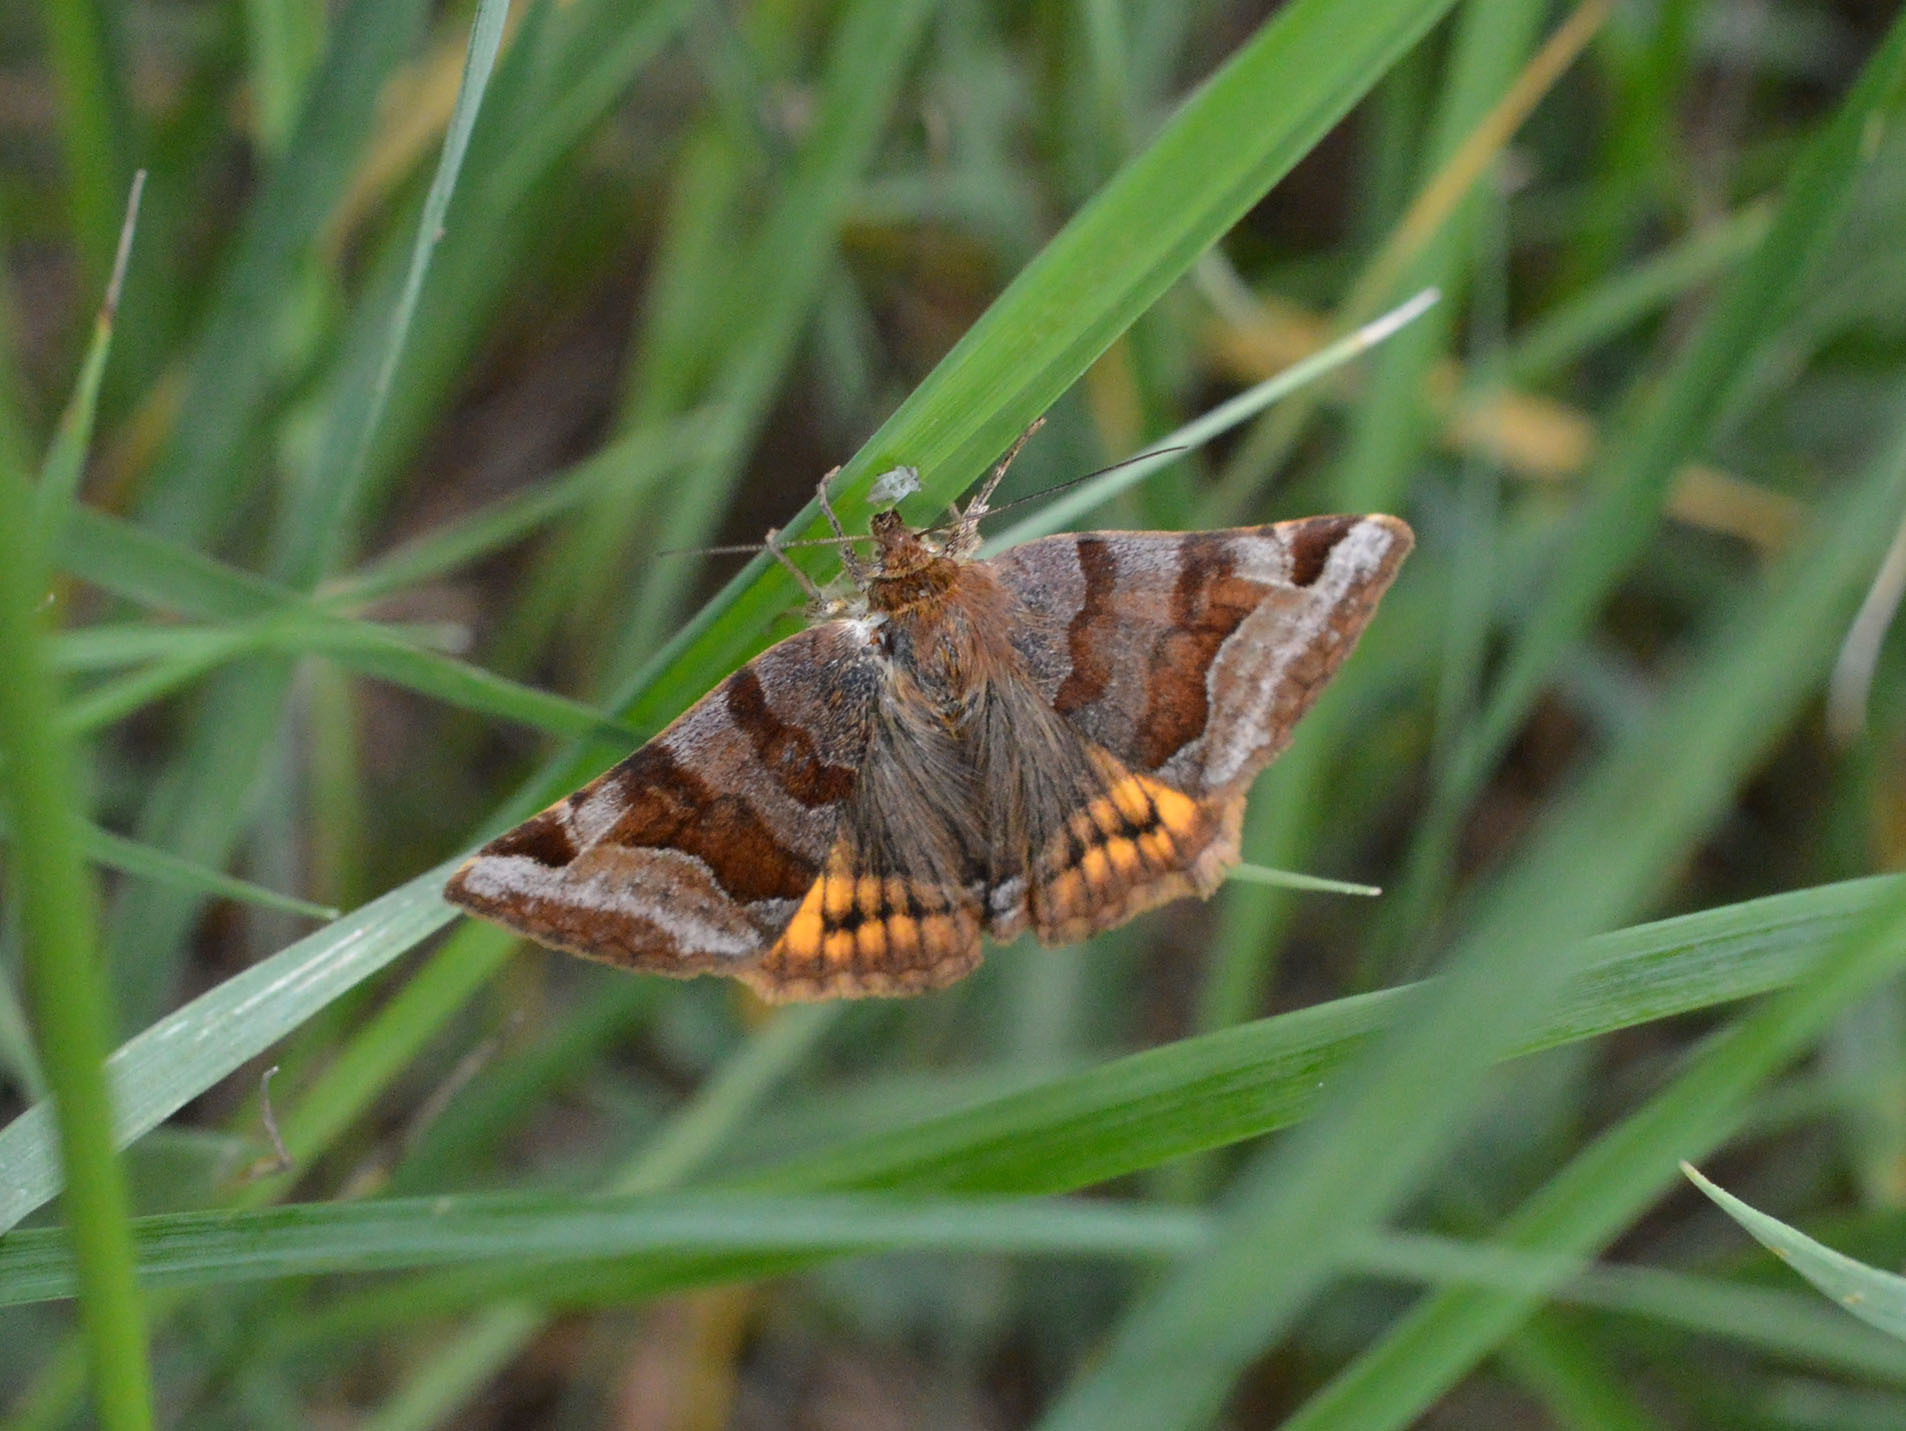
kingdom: Animalia
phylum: Arthropoda
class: Insecta
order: Lepidoptera
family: Erebidae
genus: Euclidia
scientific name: Euclidia glyphica
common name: Burnet companion
